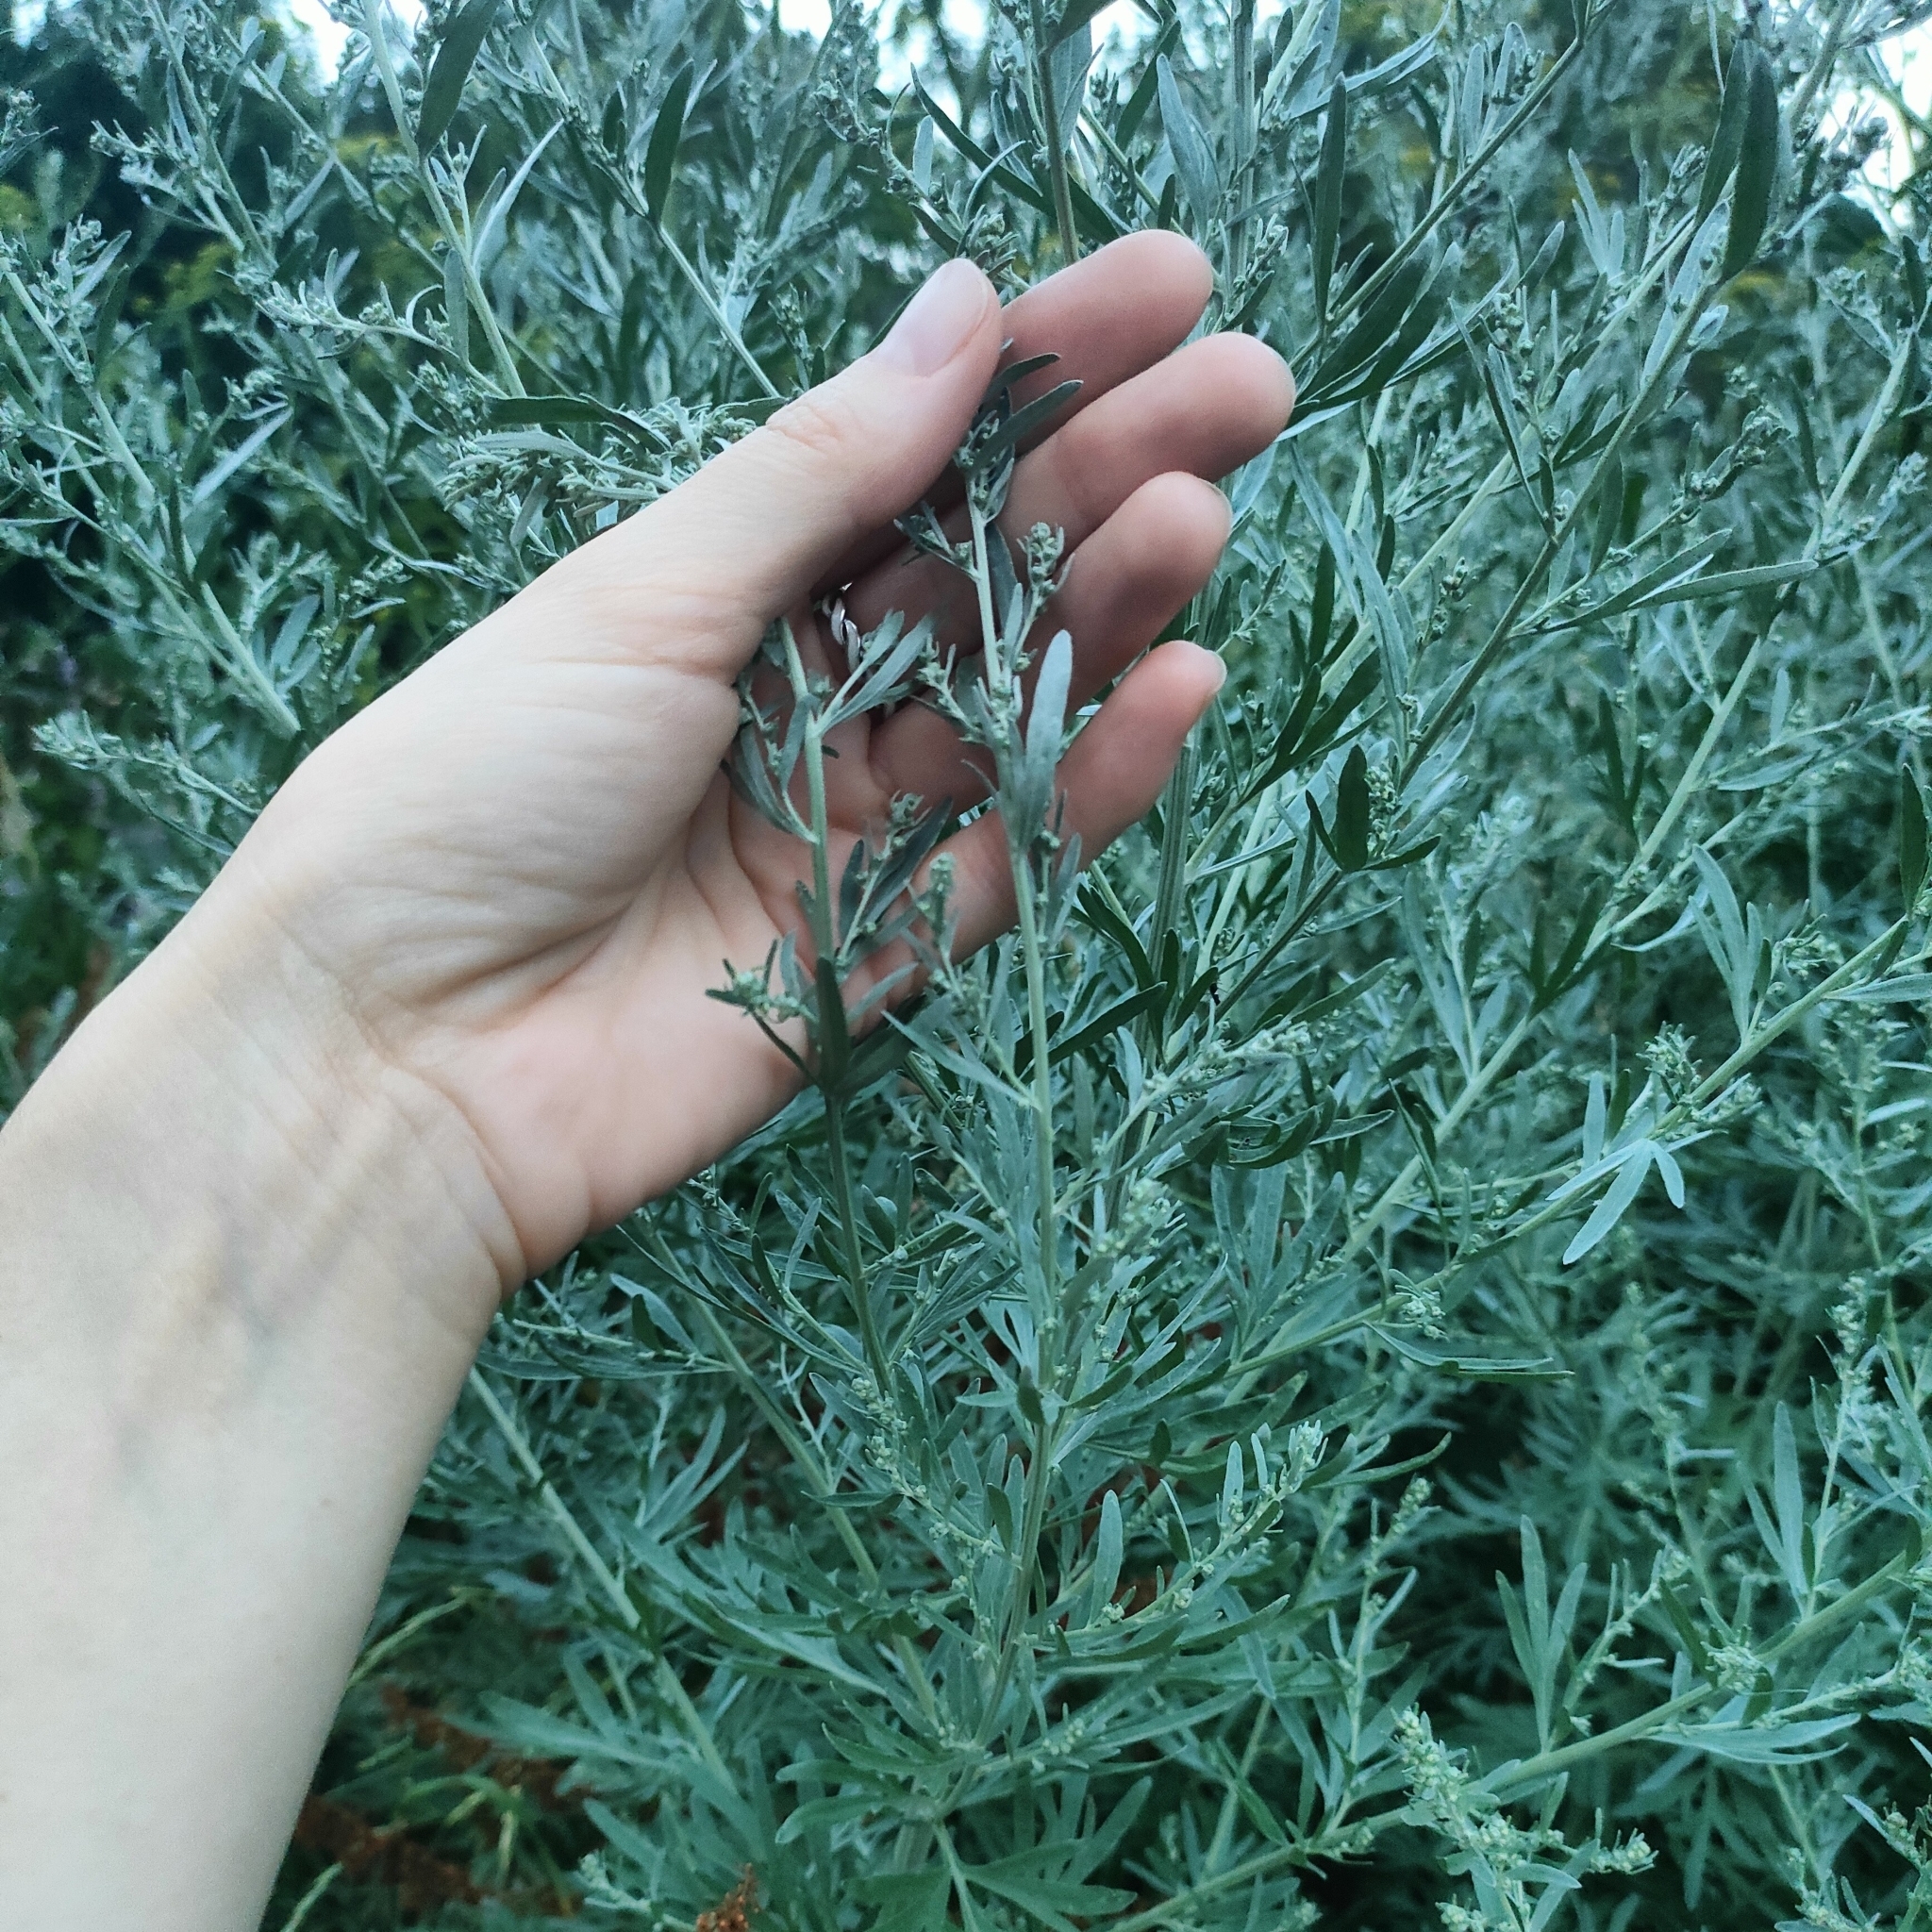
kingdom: Plantae
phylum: Tracheophyta
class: Magnoliopsida
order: Asterales
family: Asteraceae
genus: Artemisia
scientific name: Artemisia absinthium
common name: Wormwood
